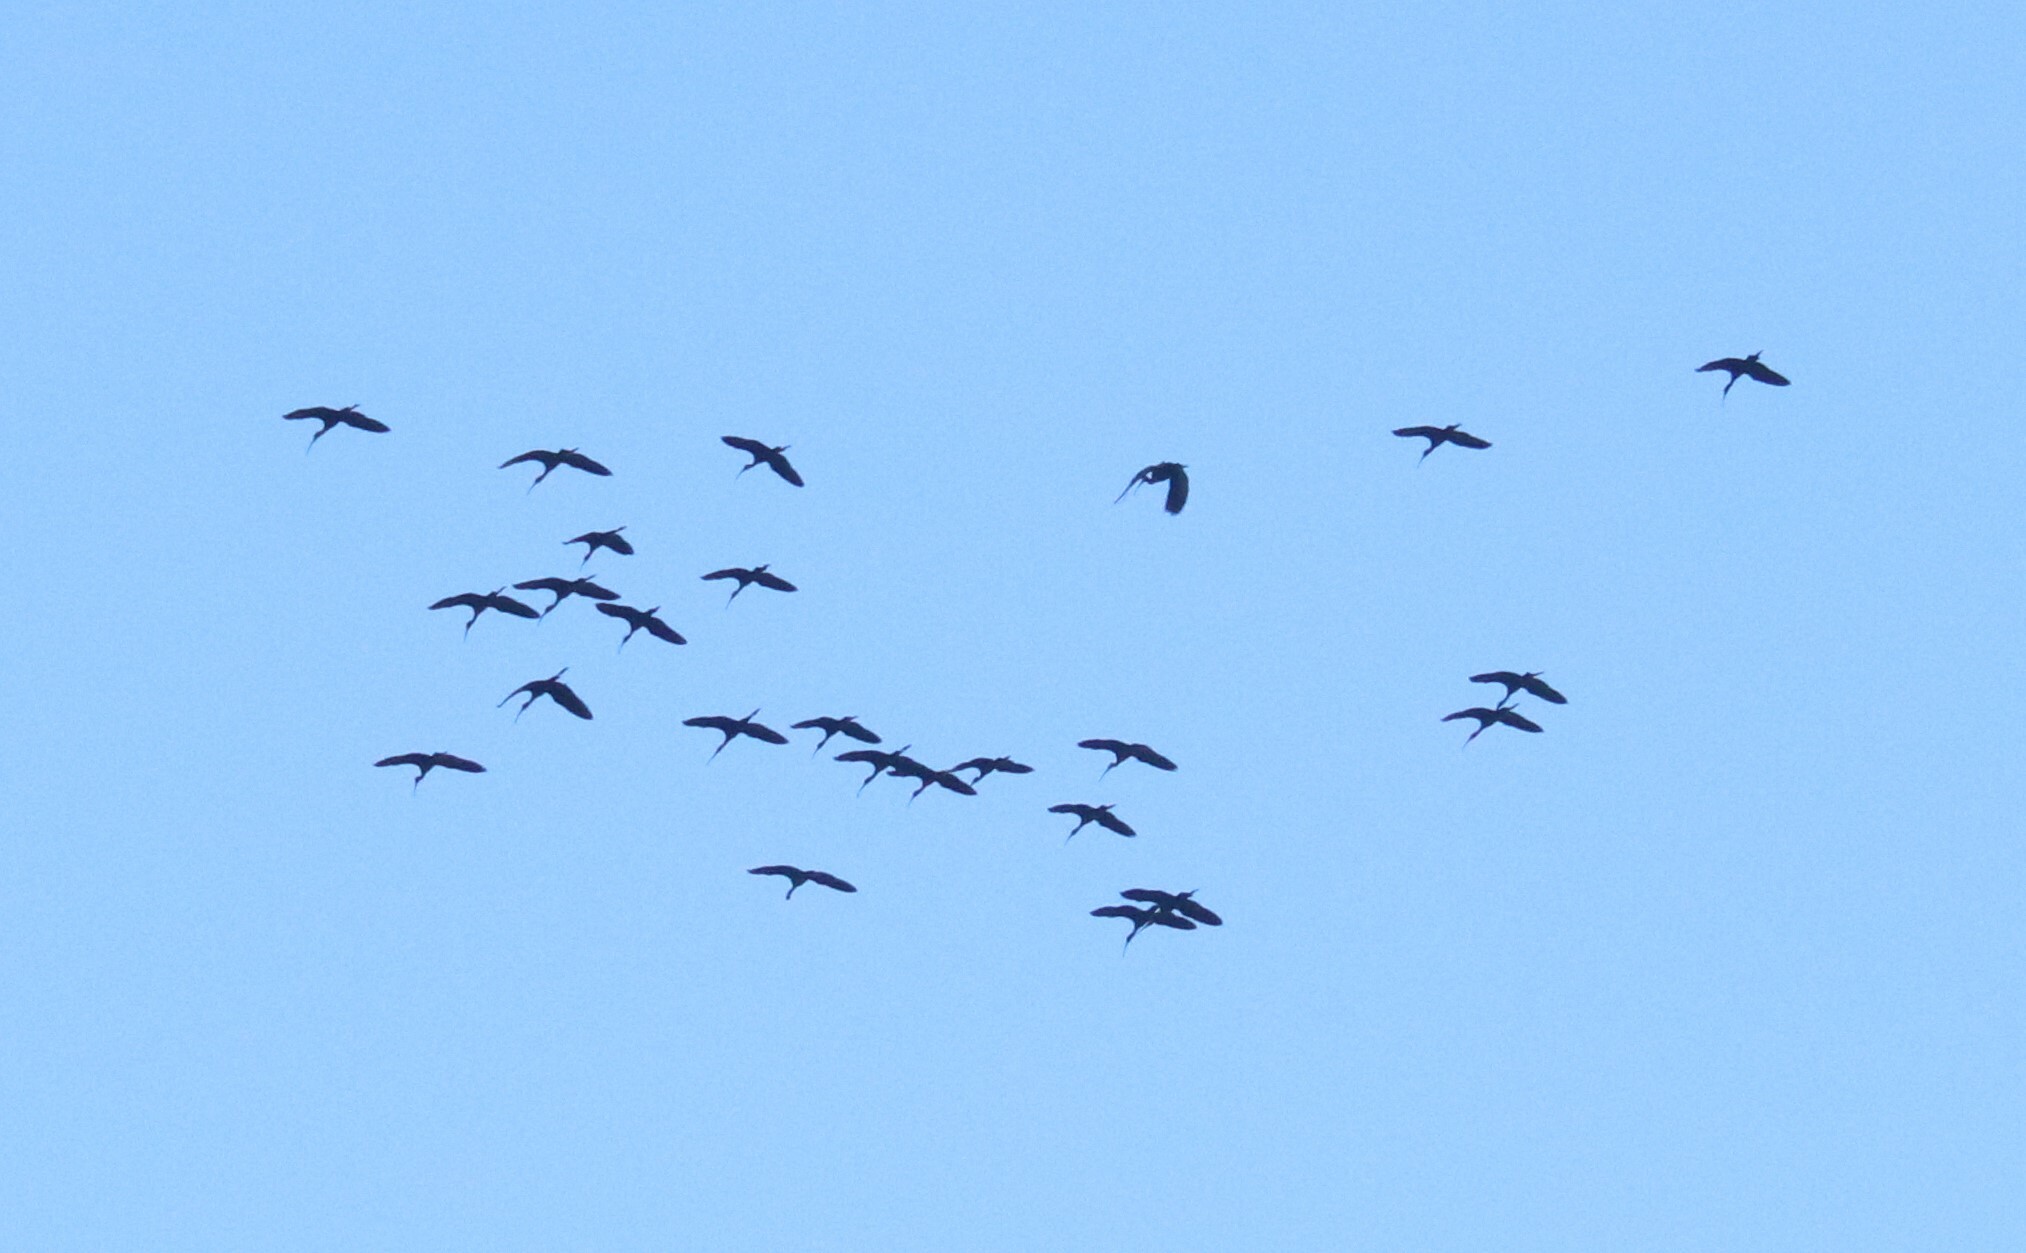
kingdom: Animalia
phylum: Chordata
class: Aves
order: Pelecaniformes
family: Threskiornithidae
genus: Plegadis
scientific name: Plegadis chihi
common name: White-faced ibis
